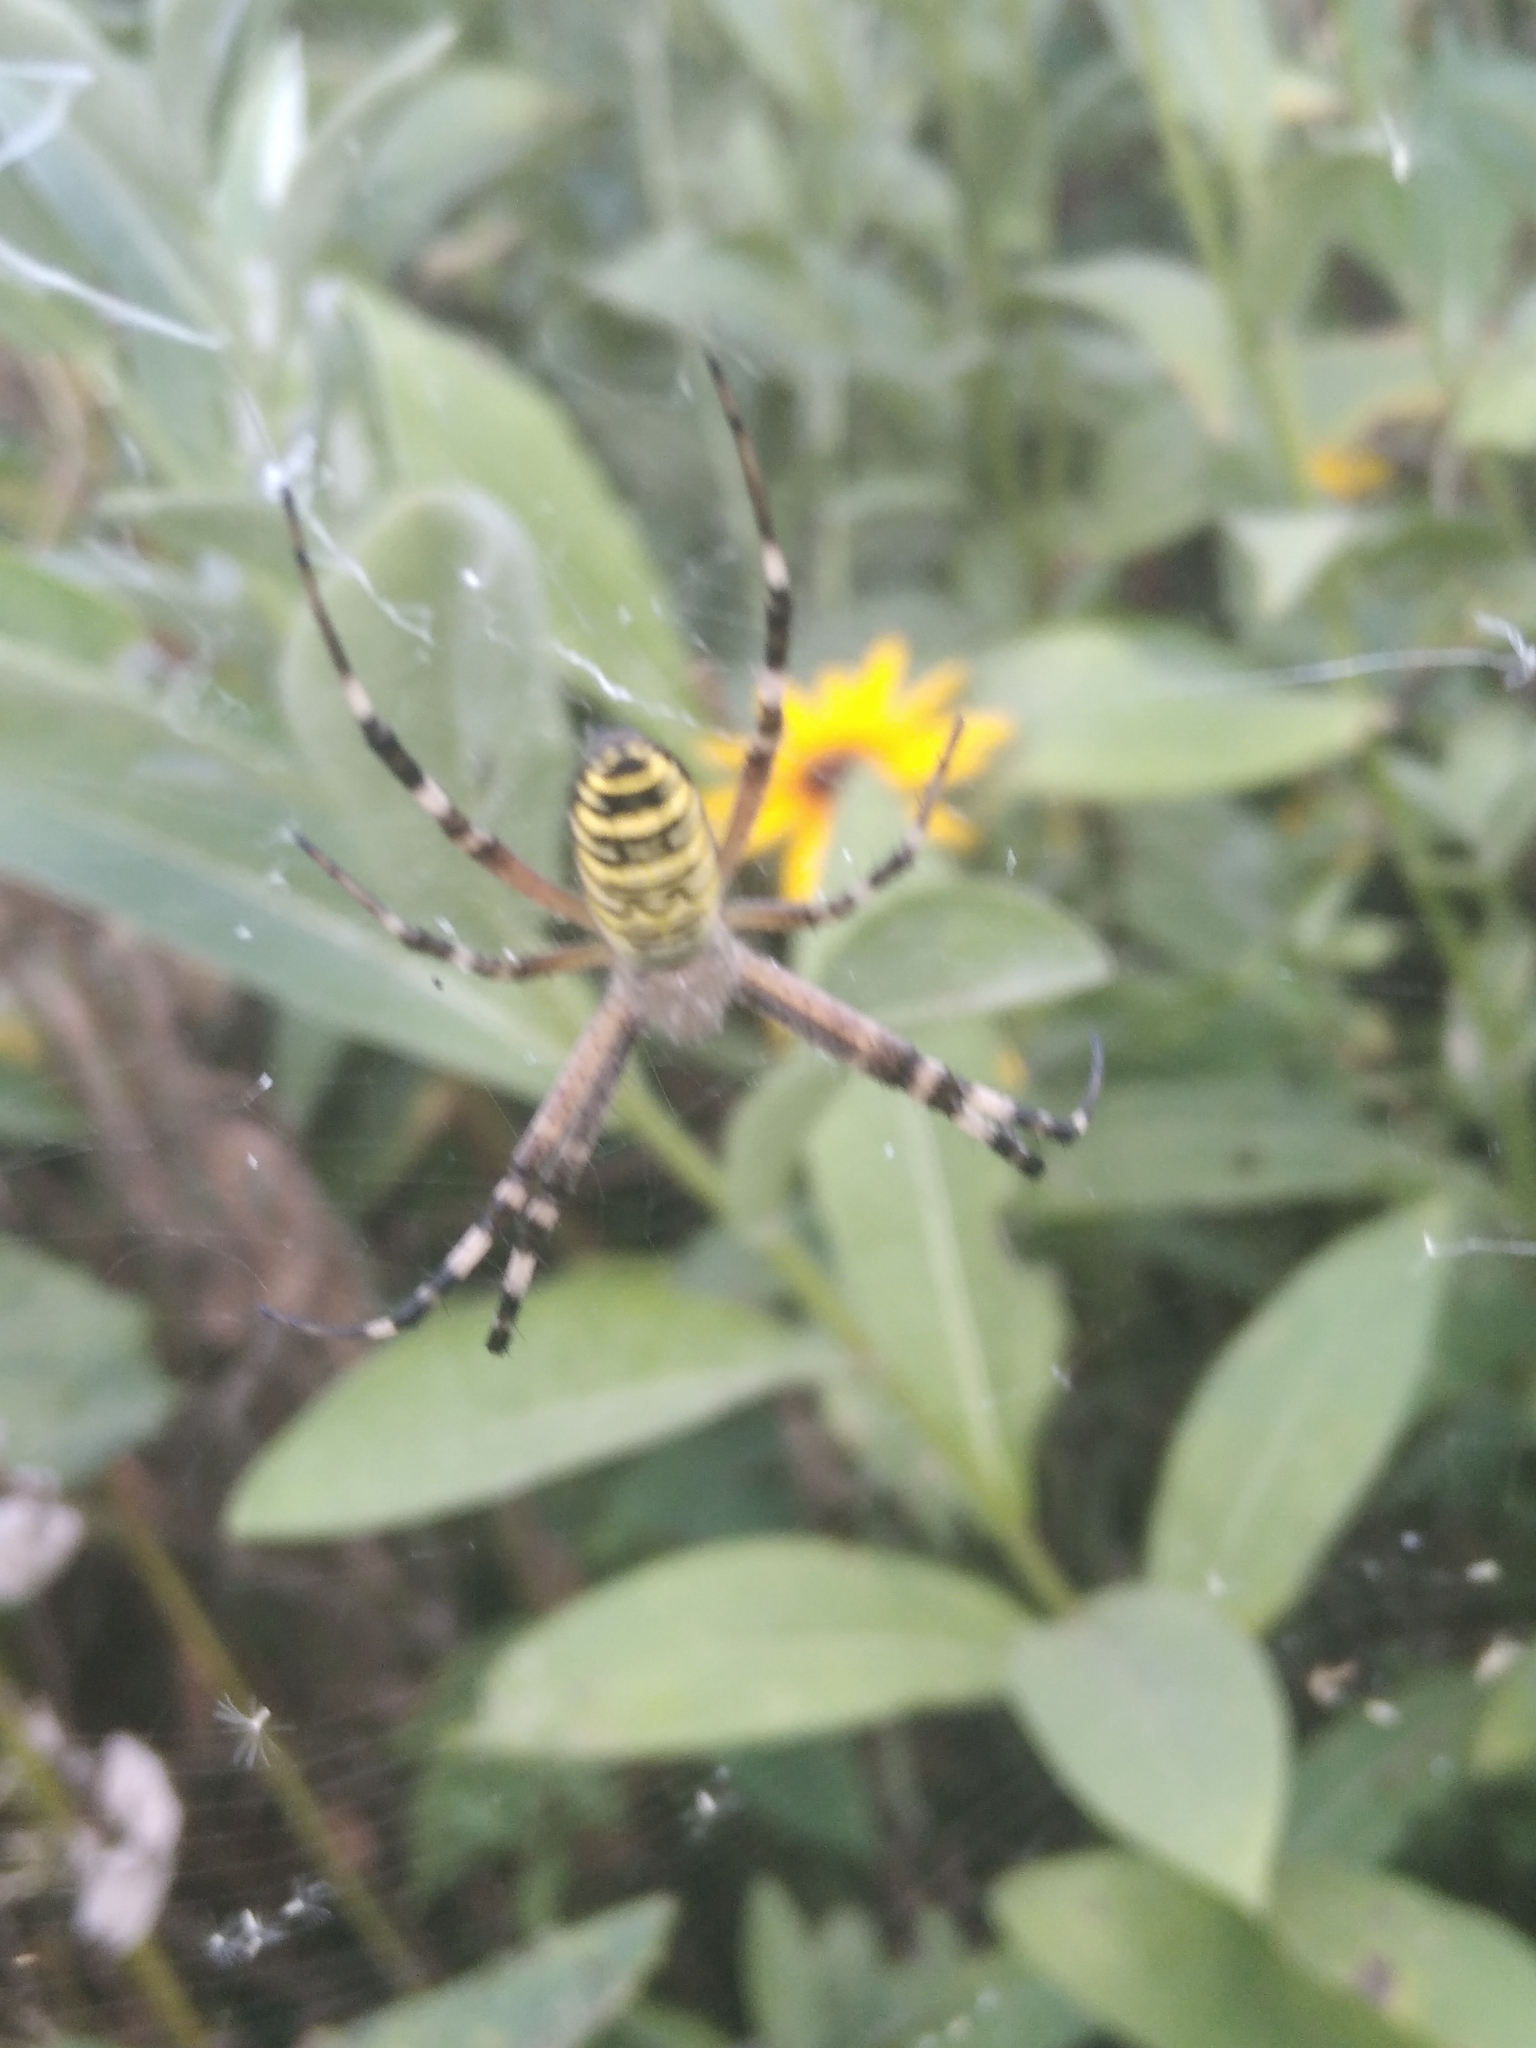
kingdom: Animalia
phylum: Arthropoda
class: Arachnida
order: Araneae
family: Araneidae
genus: Argiope
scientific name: Argiope bruennichi
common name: Wasp spider
